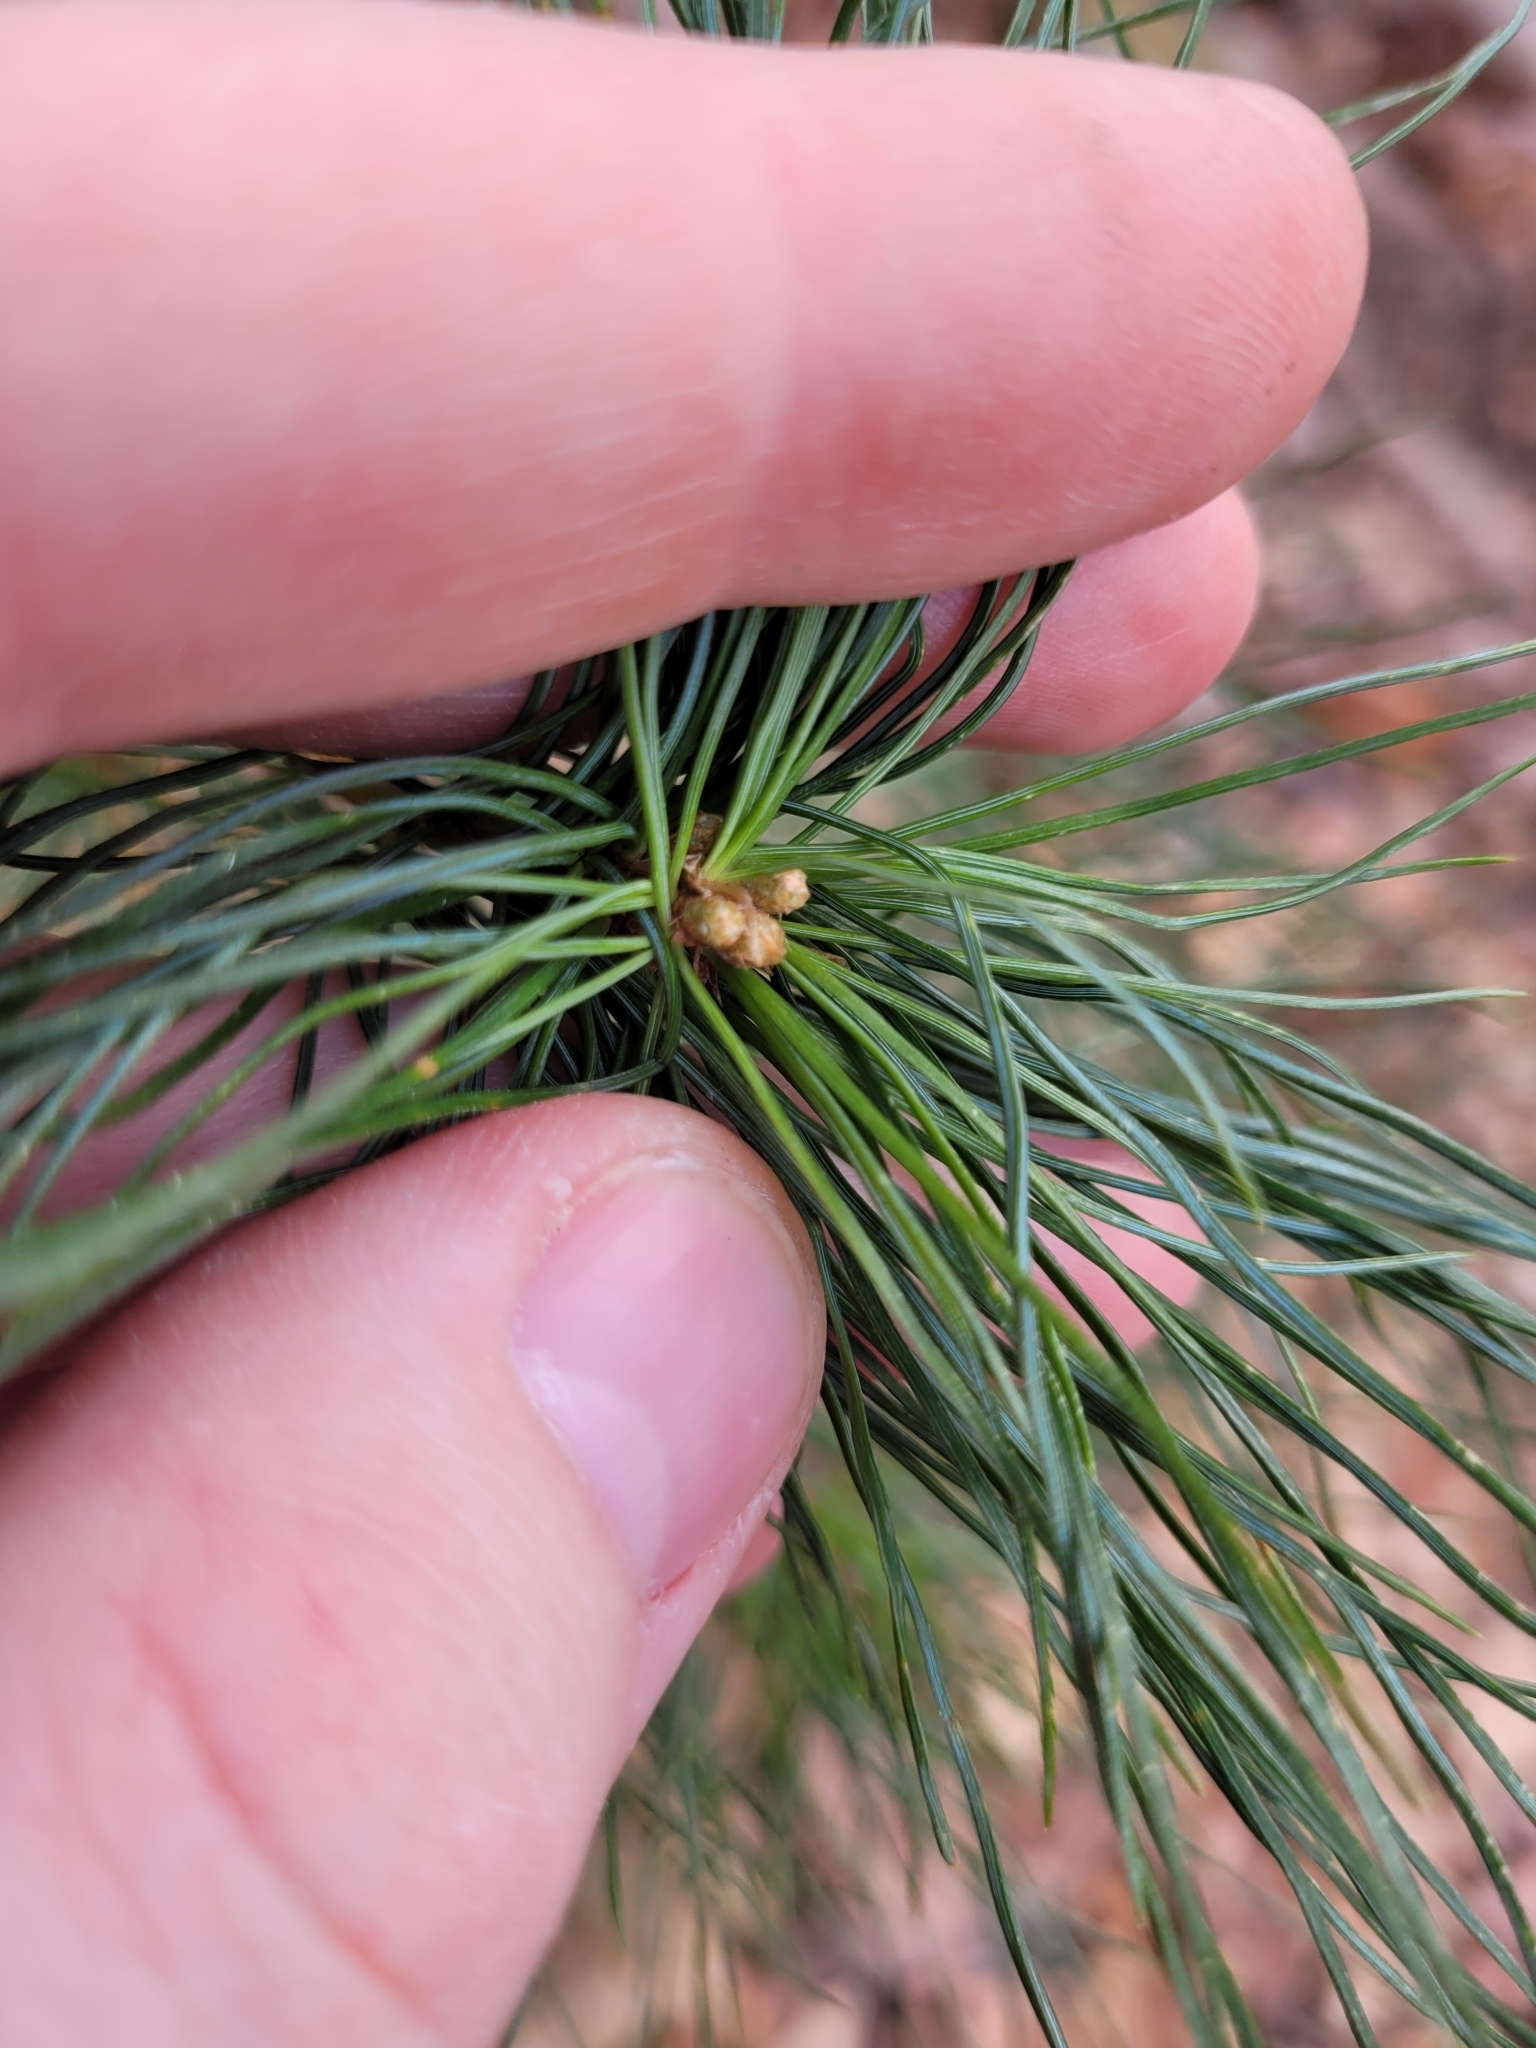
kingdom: Plantae
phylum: Tracheophyta
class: Pinopsida
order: Pinales
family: Pinaceae
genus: Pinus
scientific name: Pinus strobus
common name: Weymouth pine
